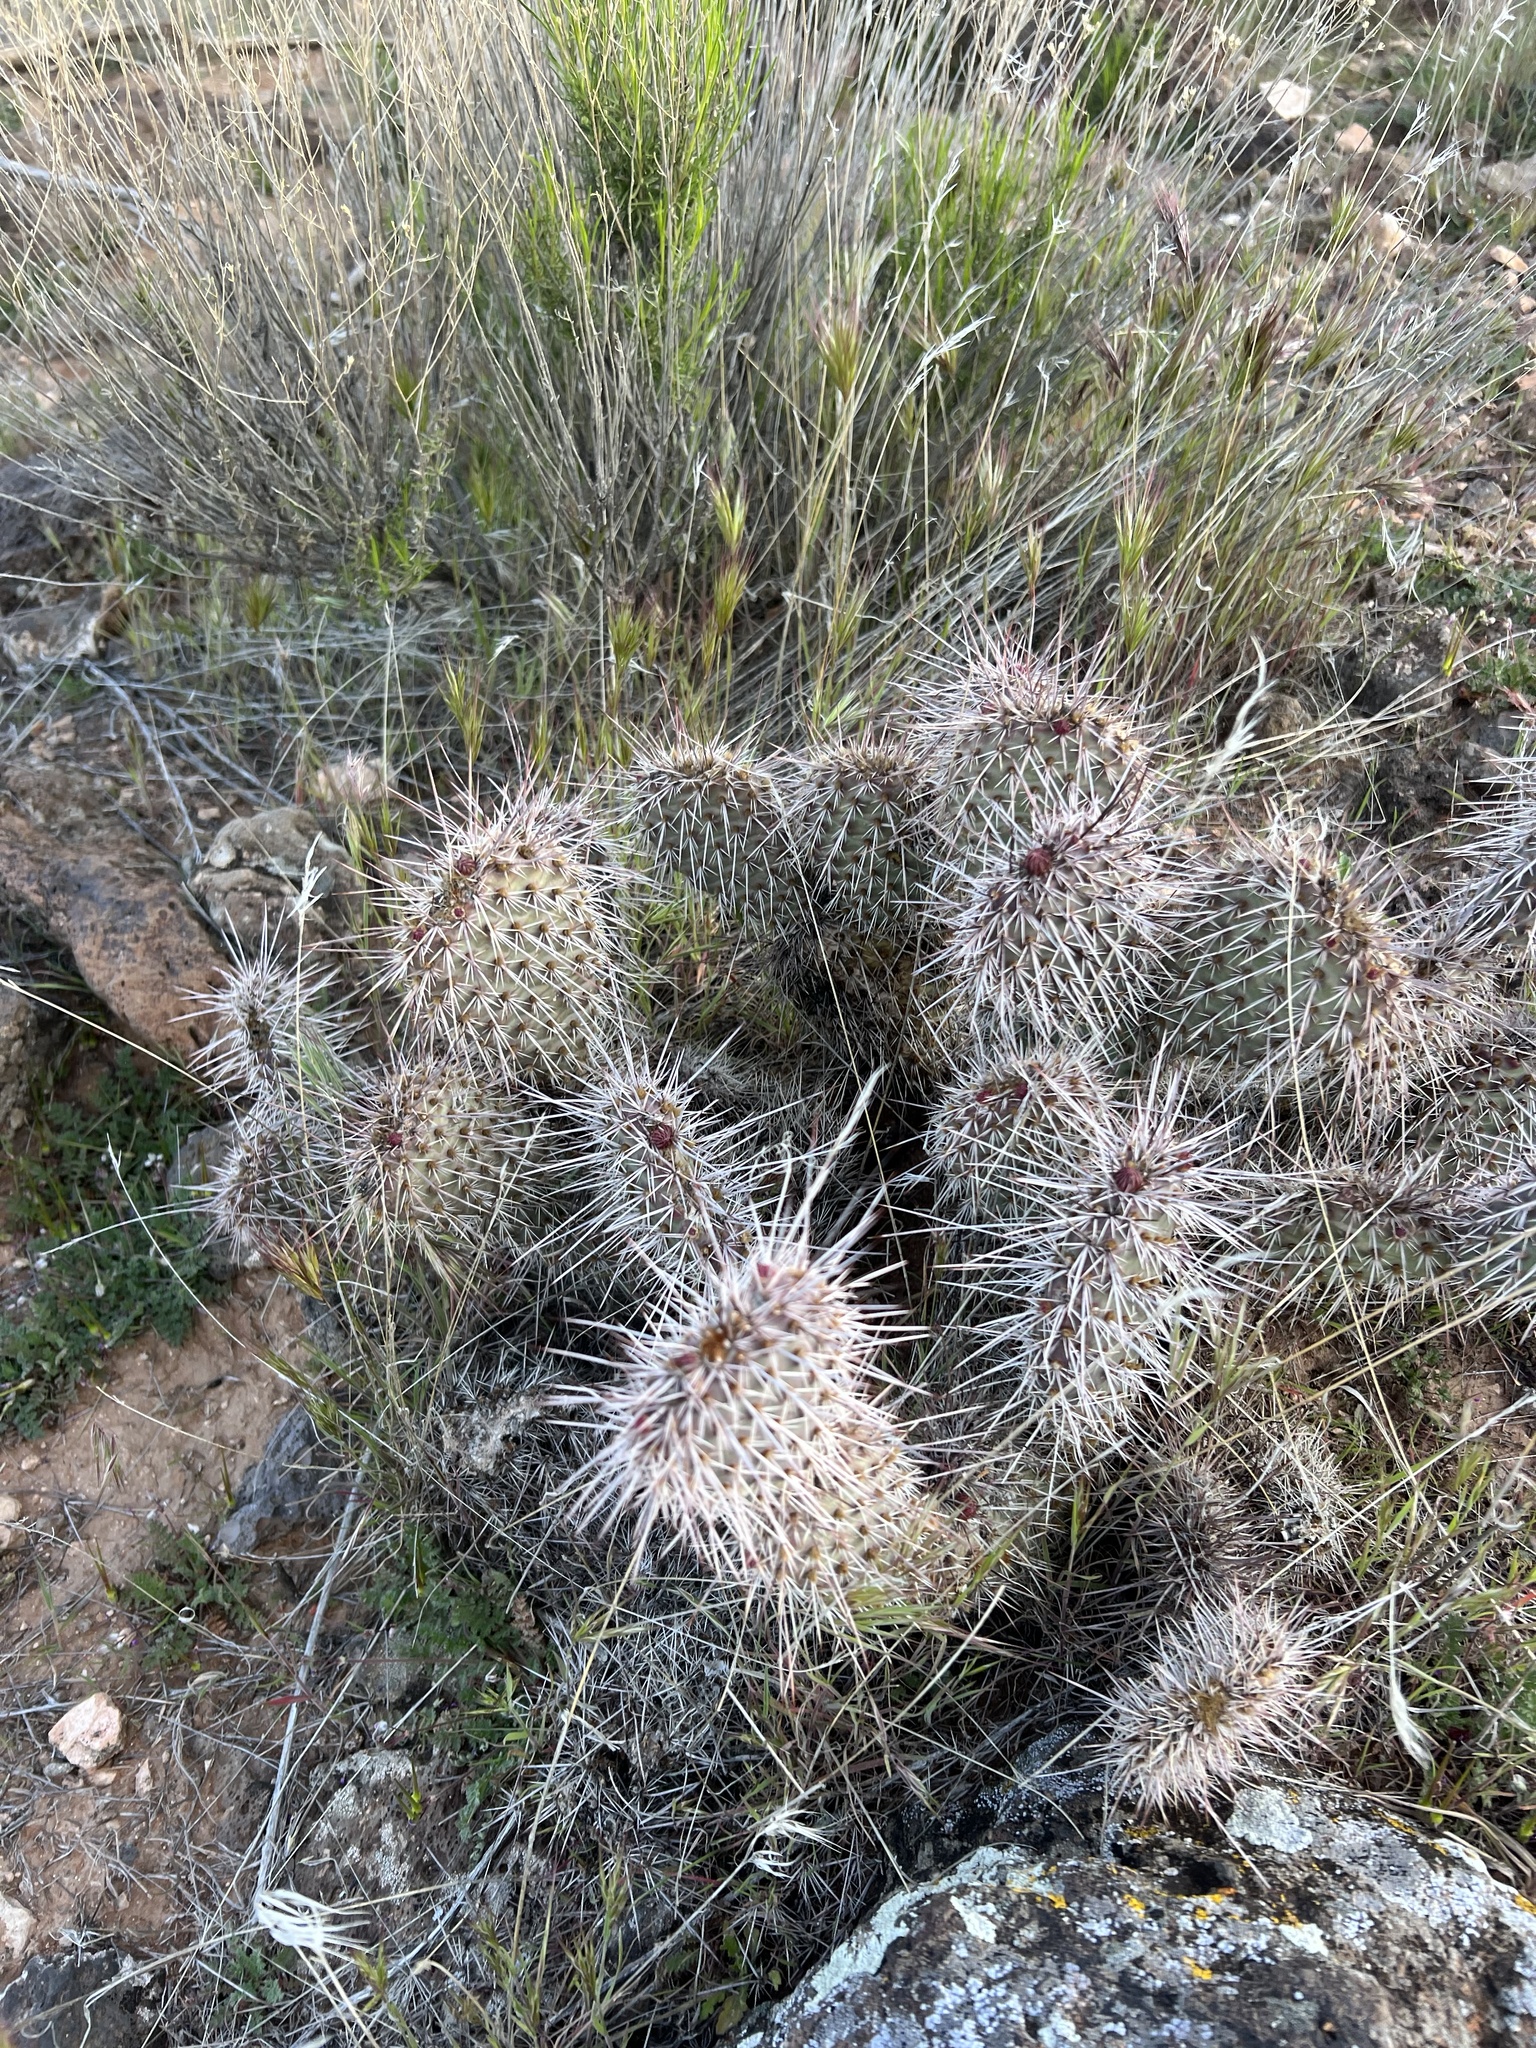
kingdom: Plantae
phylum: Tracheophyta
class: Magnoliopsida
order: Caryophyllales
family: Cactaceae
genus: Opuntia
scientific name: Opuntia polyacantha
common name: Plains prickly-pear
